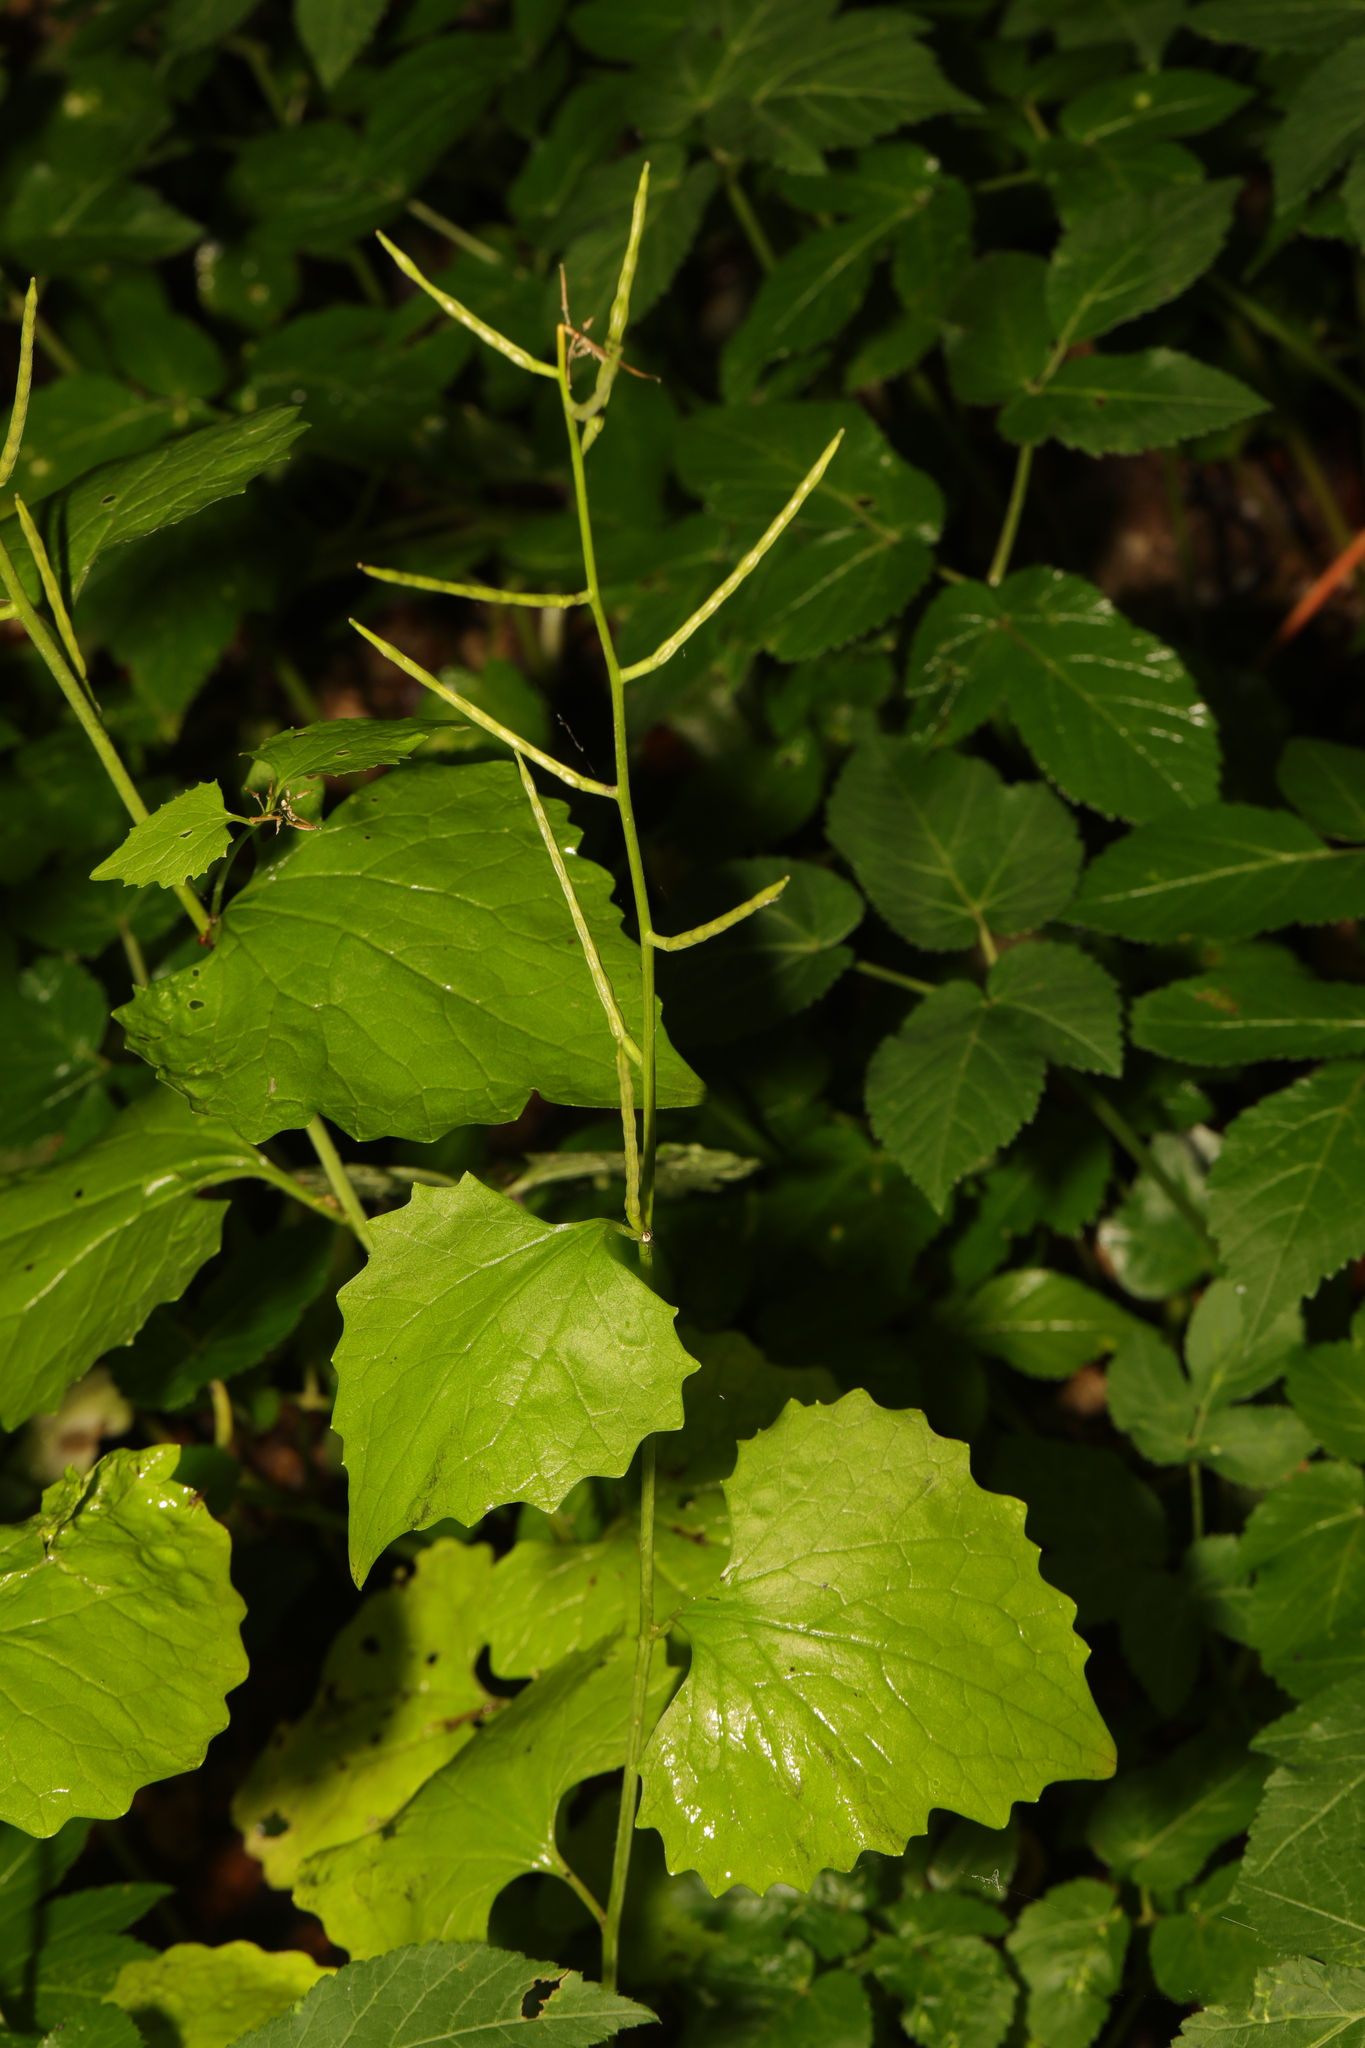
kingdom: Plantae
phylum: Tracheophyta
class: Magnoliopsida
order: Brassicales
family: Brassicaceae
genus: Alliaria
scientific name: Alliaria petiolata
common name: Garlic mustard
